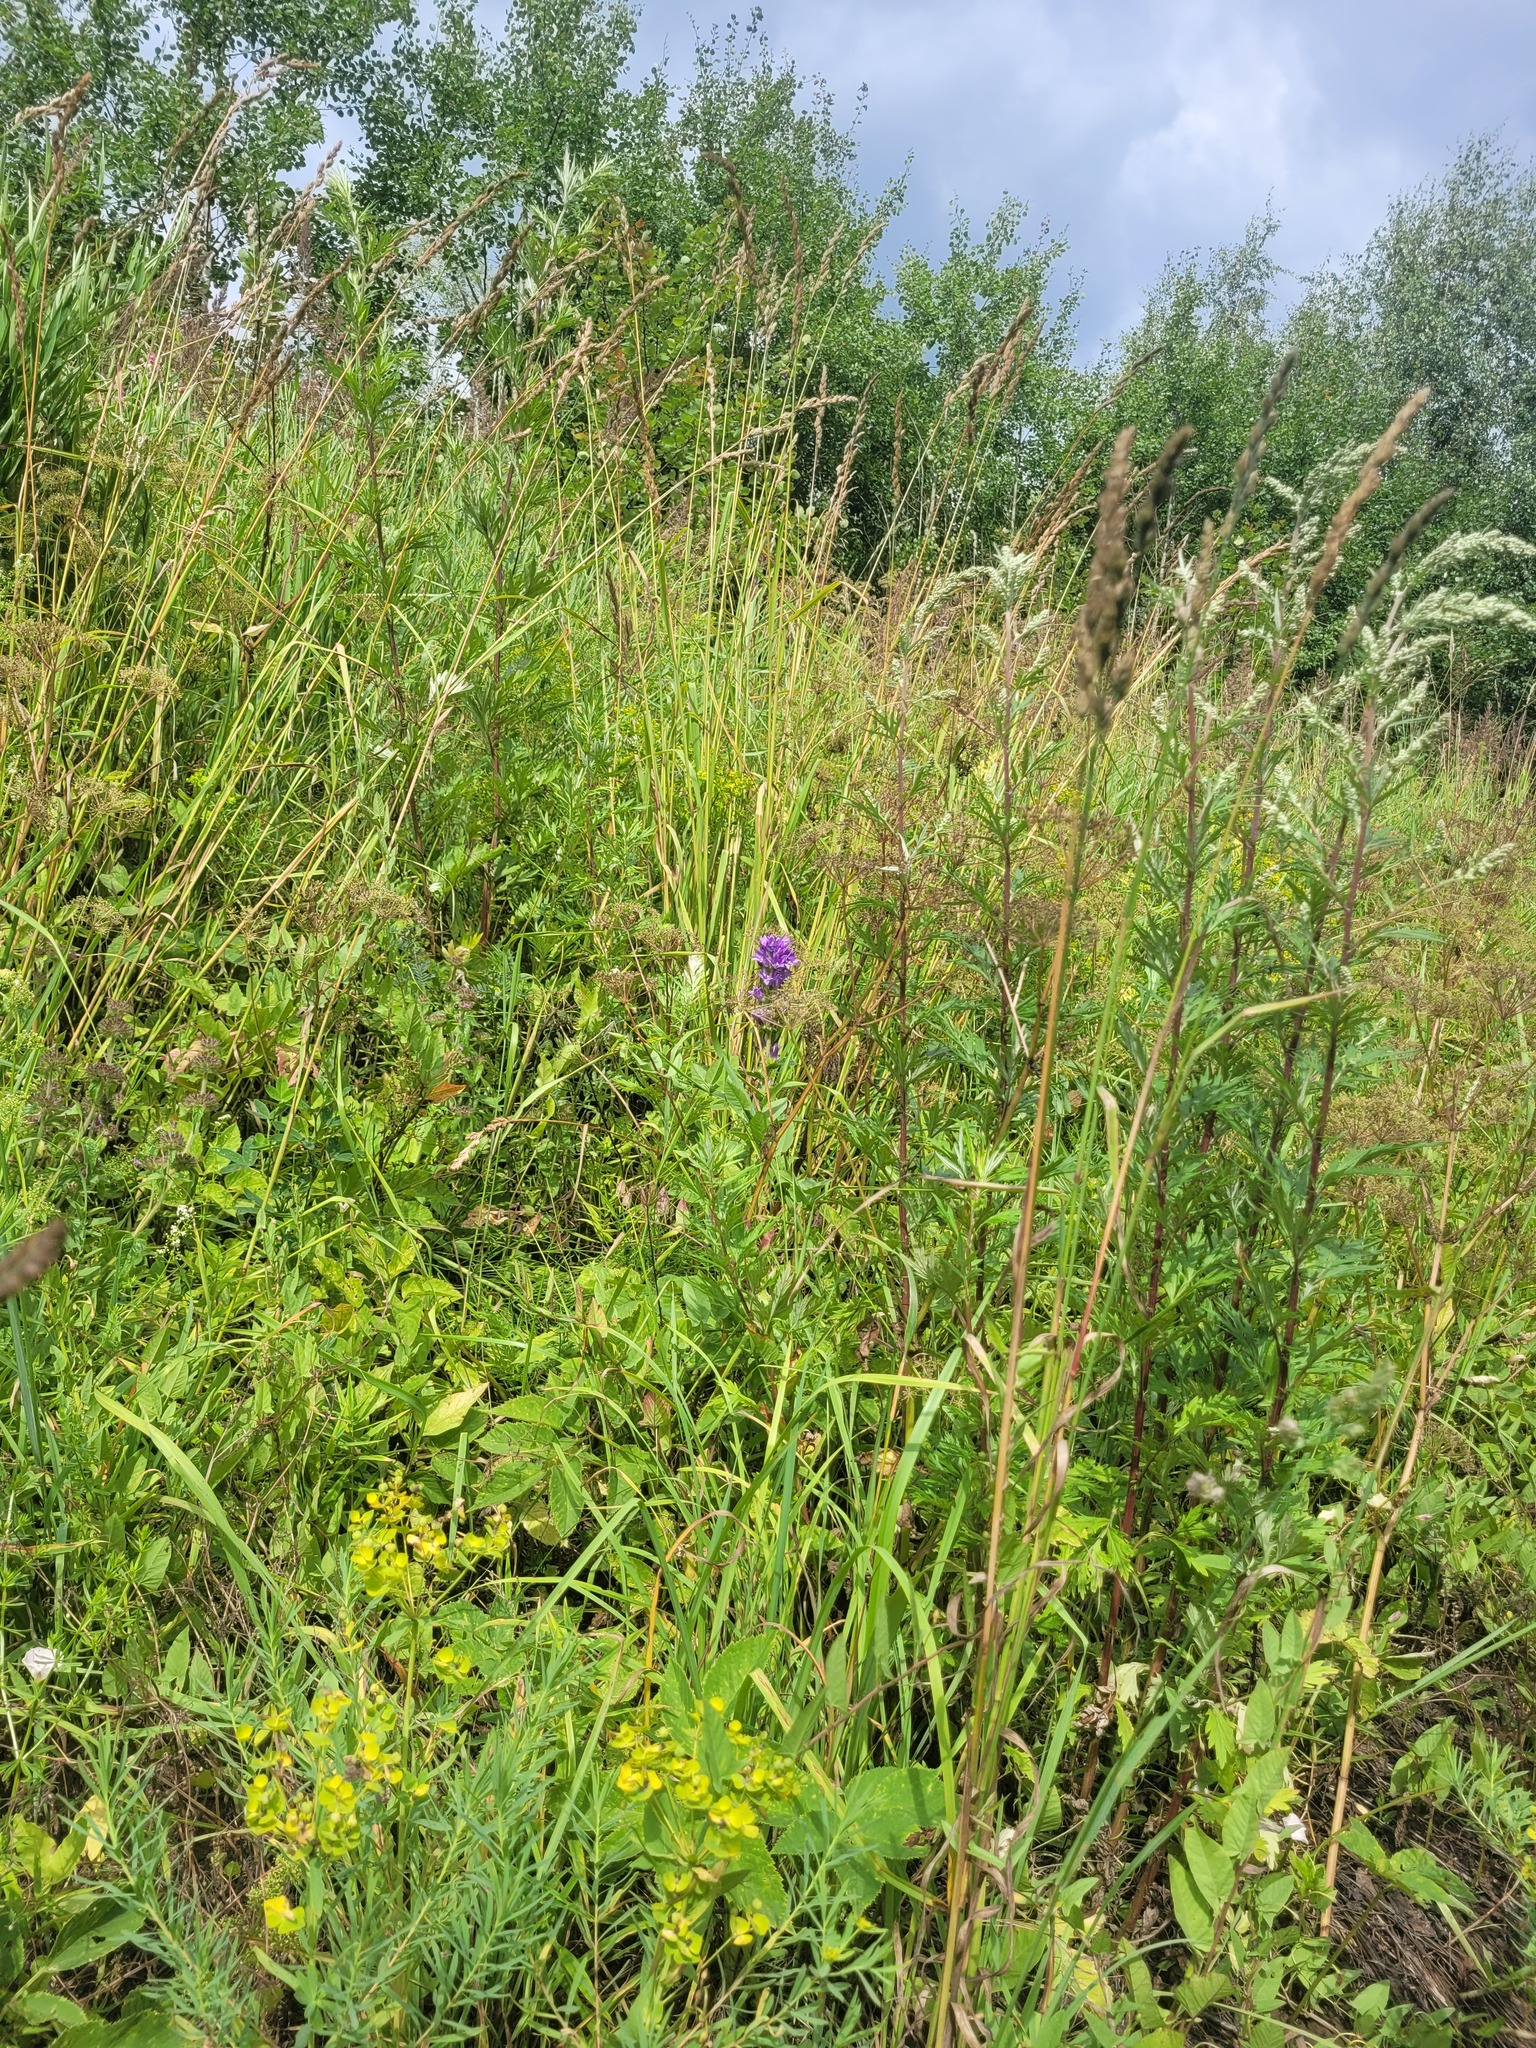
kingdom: Plantae
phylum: Tracheophyta
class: Magnoliopsida
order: Asterales
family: Campanulaceae
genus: Campanula
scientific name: Campanula glomerata
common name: Clustered bellflower
